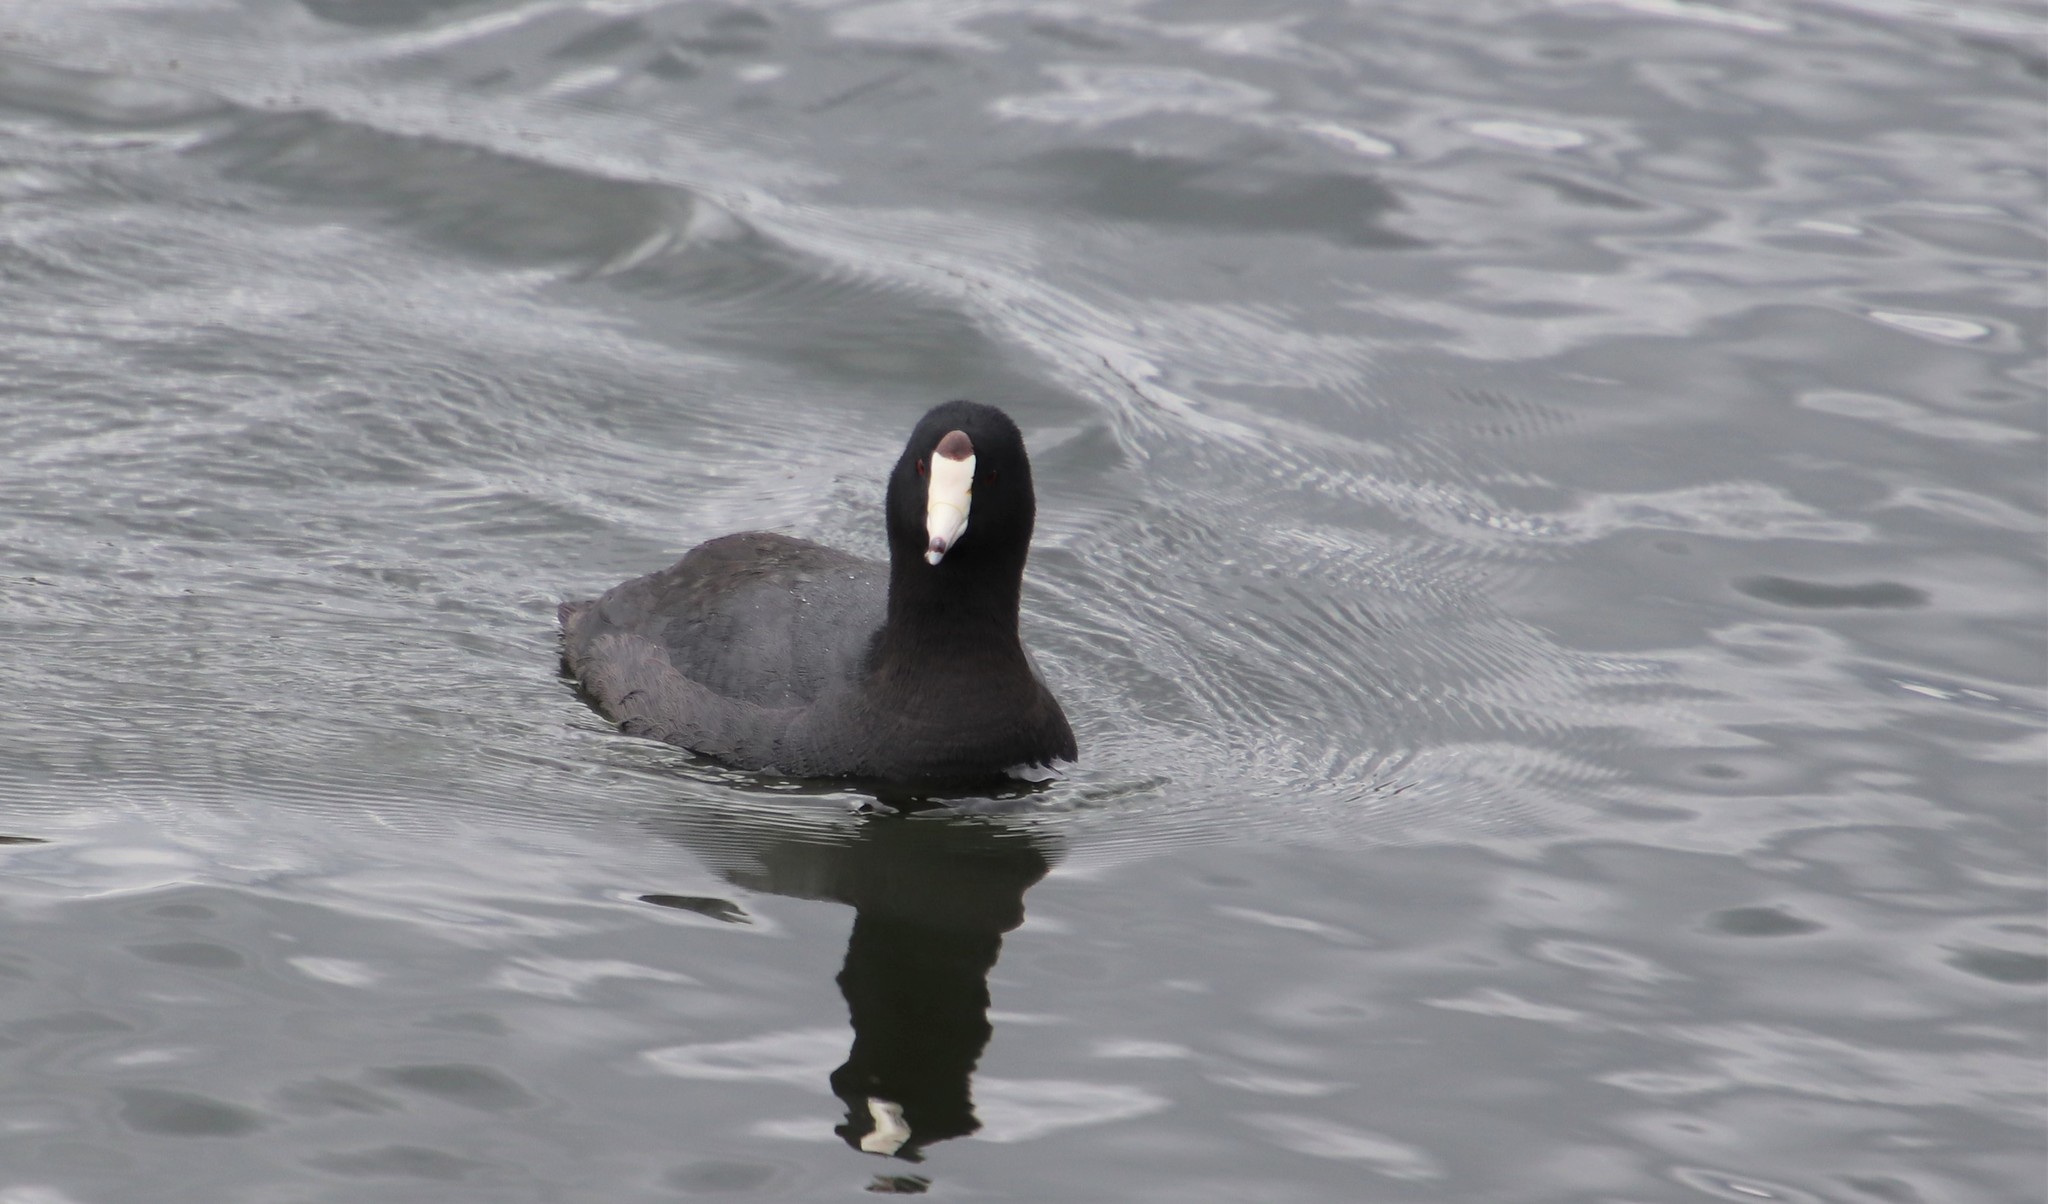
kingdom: Animalia
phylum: Chordata
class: Aves
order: Gruiformes
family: Rallidae
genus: Fulica
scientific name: Fulica americana
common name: American coot
